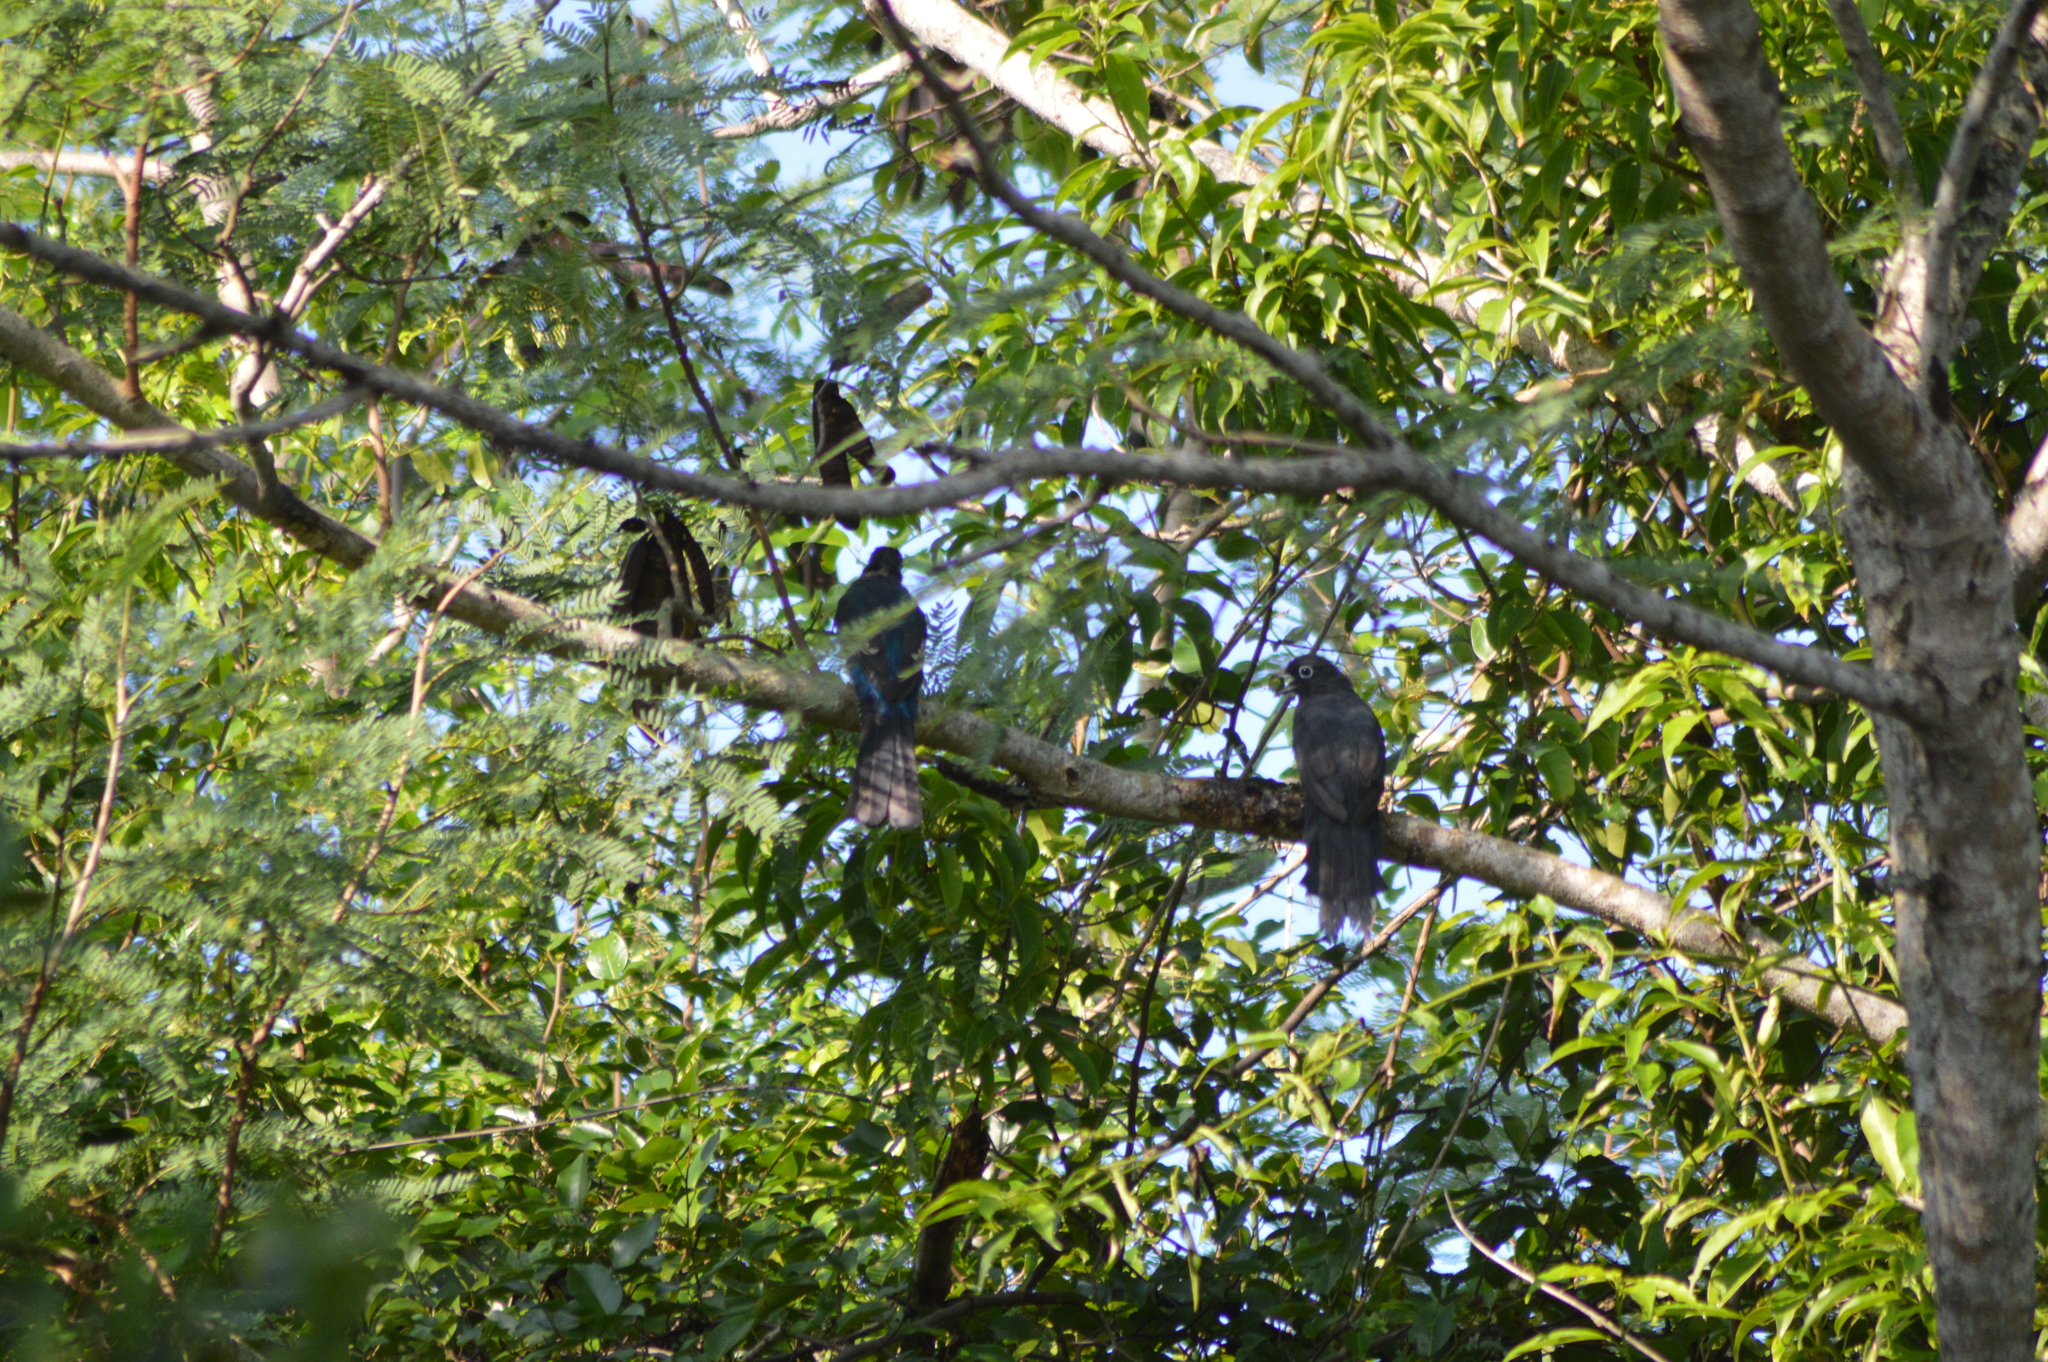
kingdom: Animalia
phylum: Chordata
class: Aves
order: Trogoniformes
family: Trogonidae
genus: Trogon
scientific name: Trogon melanocephalus
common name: Black-headed trogon
